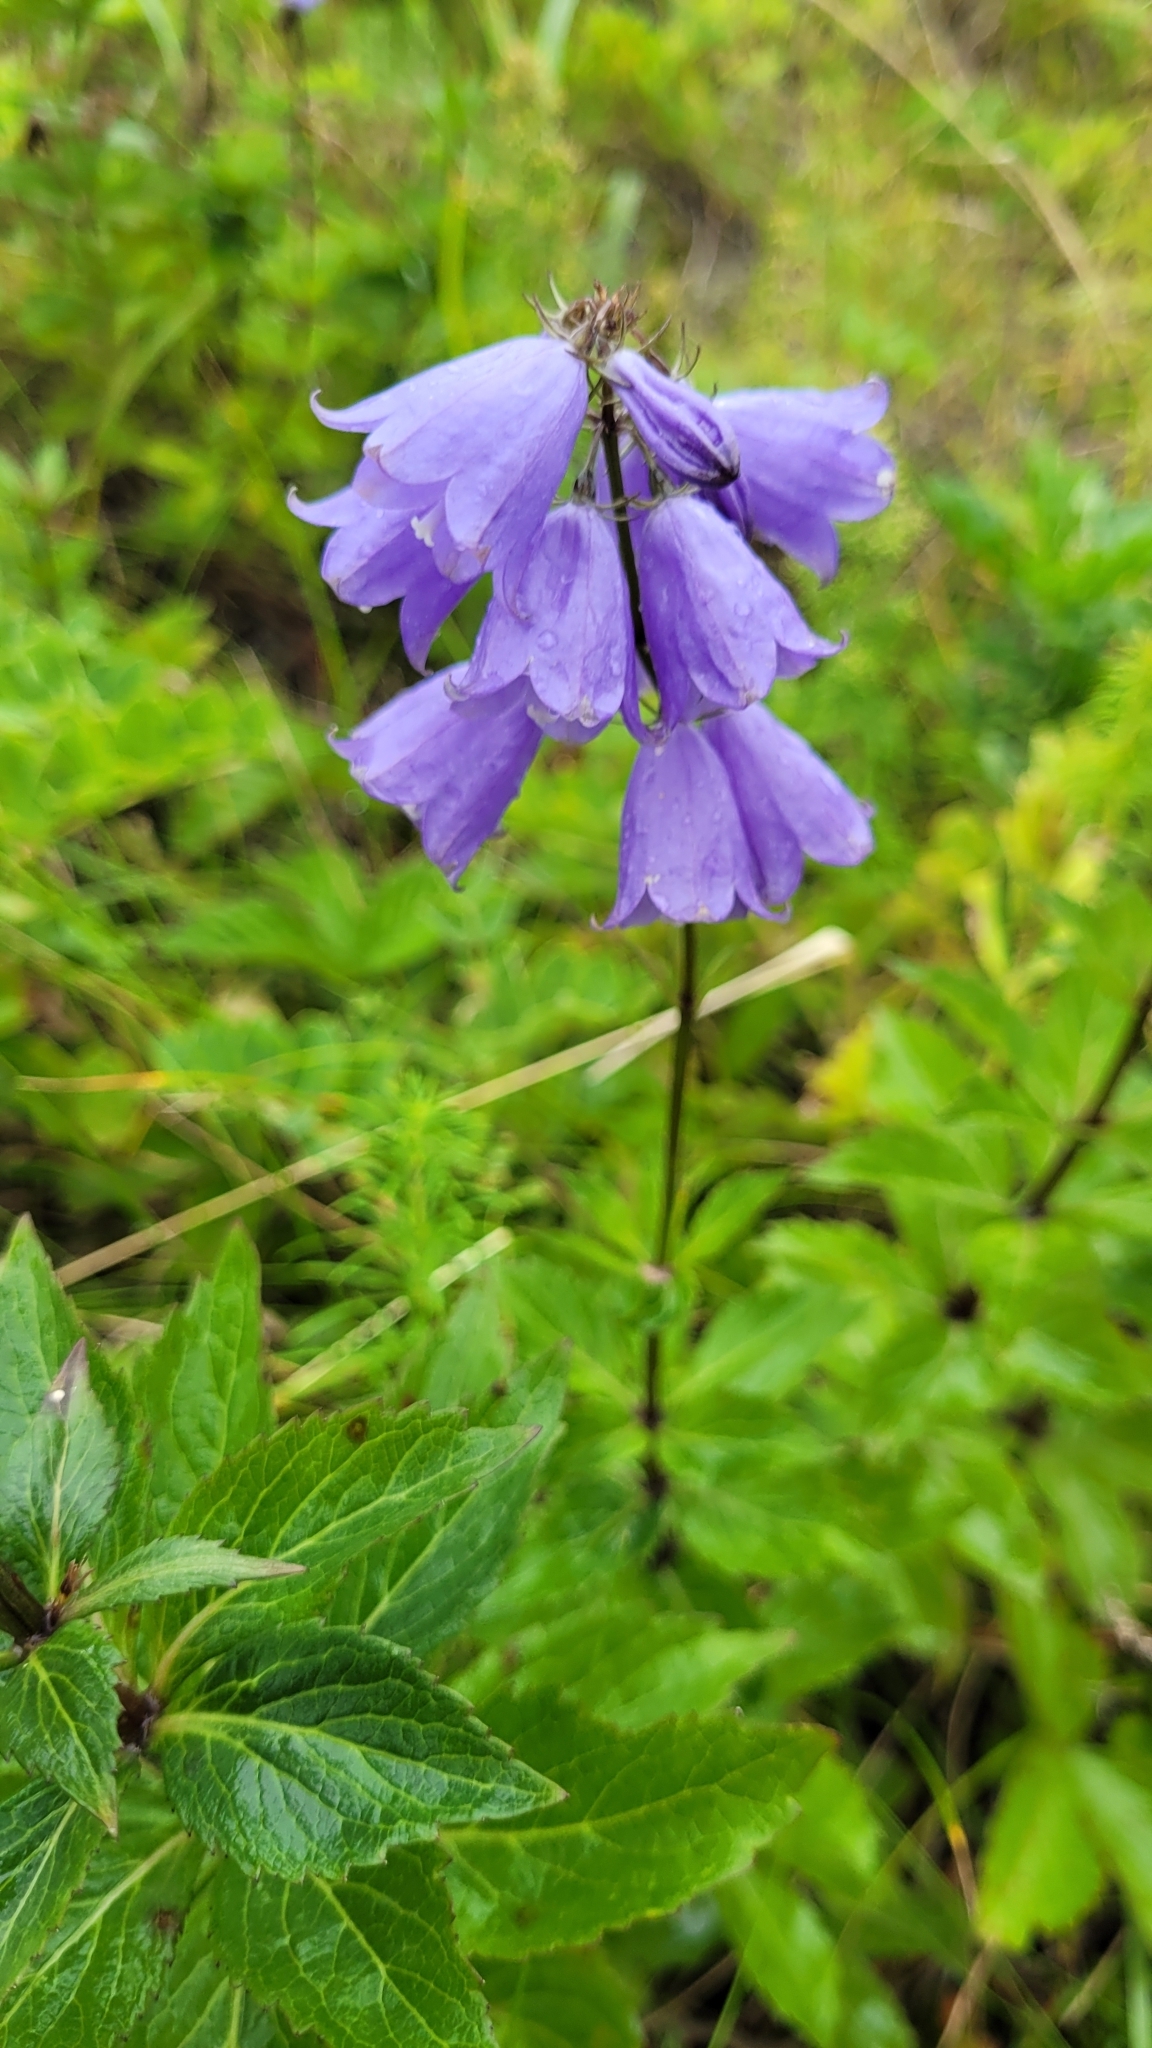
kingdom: Plantae
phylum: Tracheophyta
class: Magnoliopsida
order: Asterales
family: Campanulaceae
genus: Adenophora
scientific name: Adenophora triphylla
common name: Giant-bellflower
